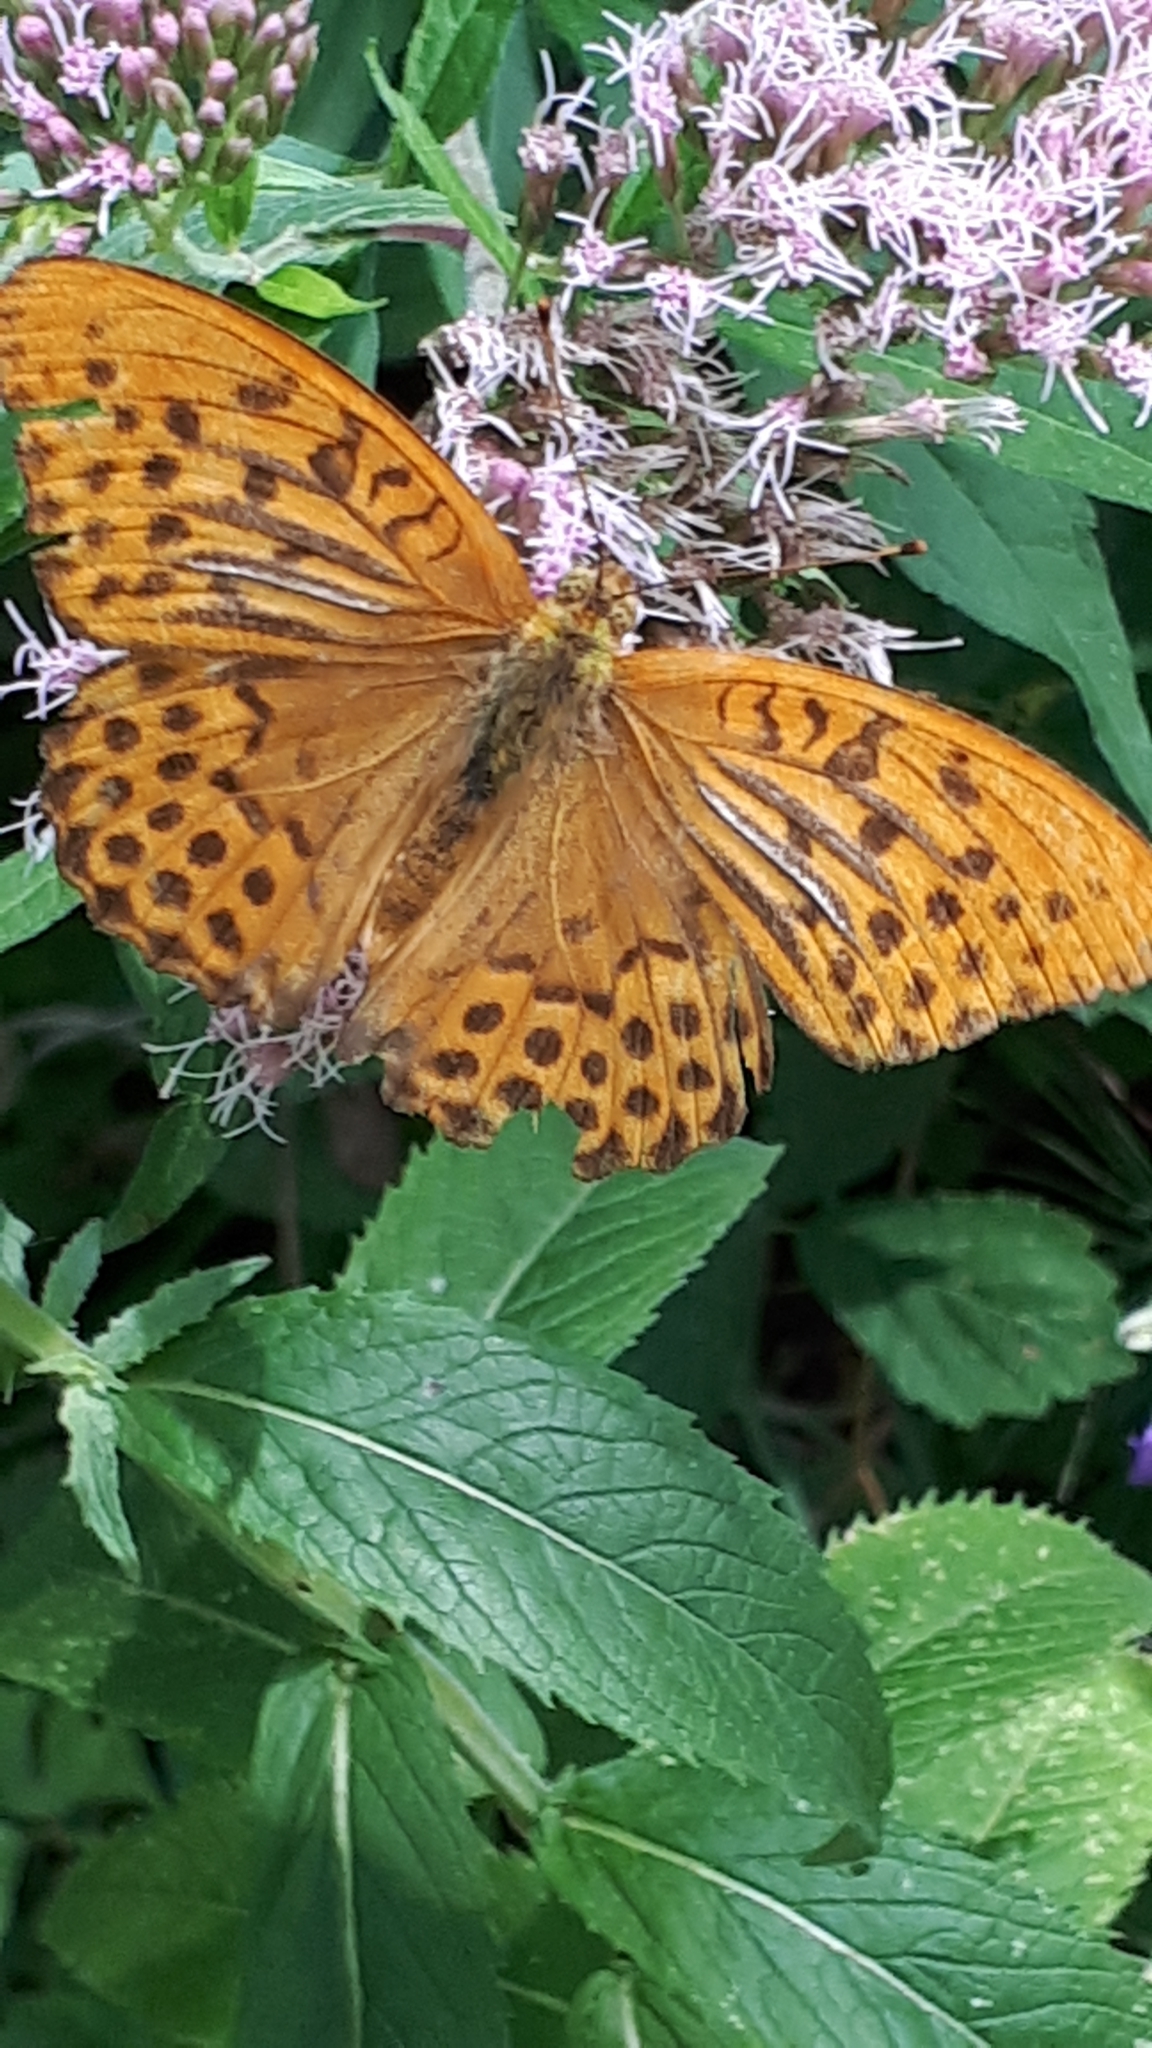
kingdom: Animalia
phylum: Arthropoda
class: Insecta
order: Lepidoptera
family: Nymphalidae
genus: Argynnis
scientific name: Argynnis paphia
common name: Silver-washed fritillary
